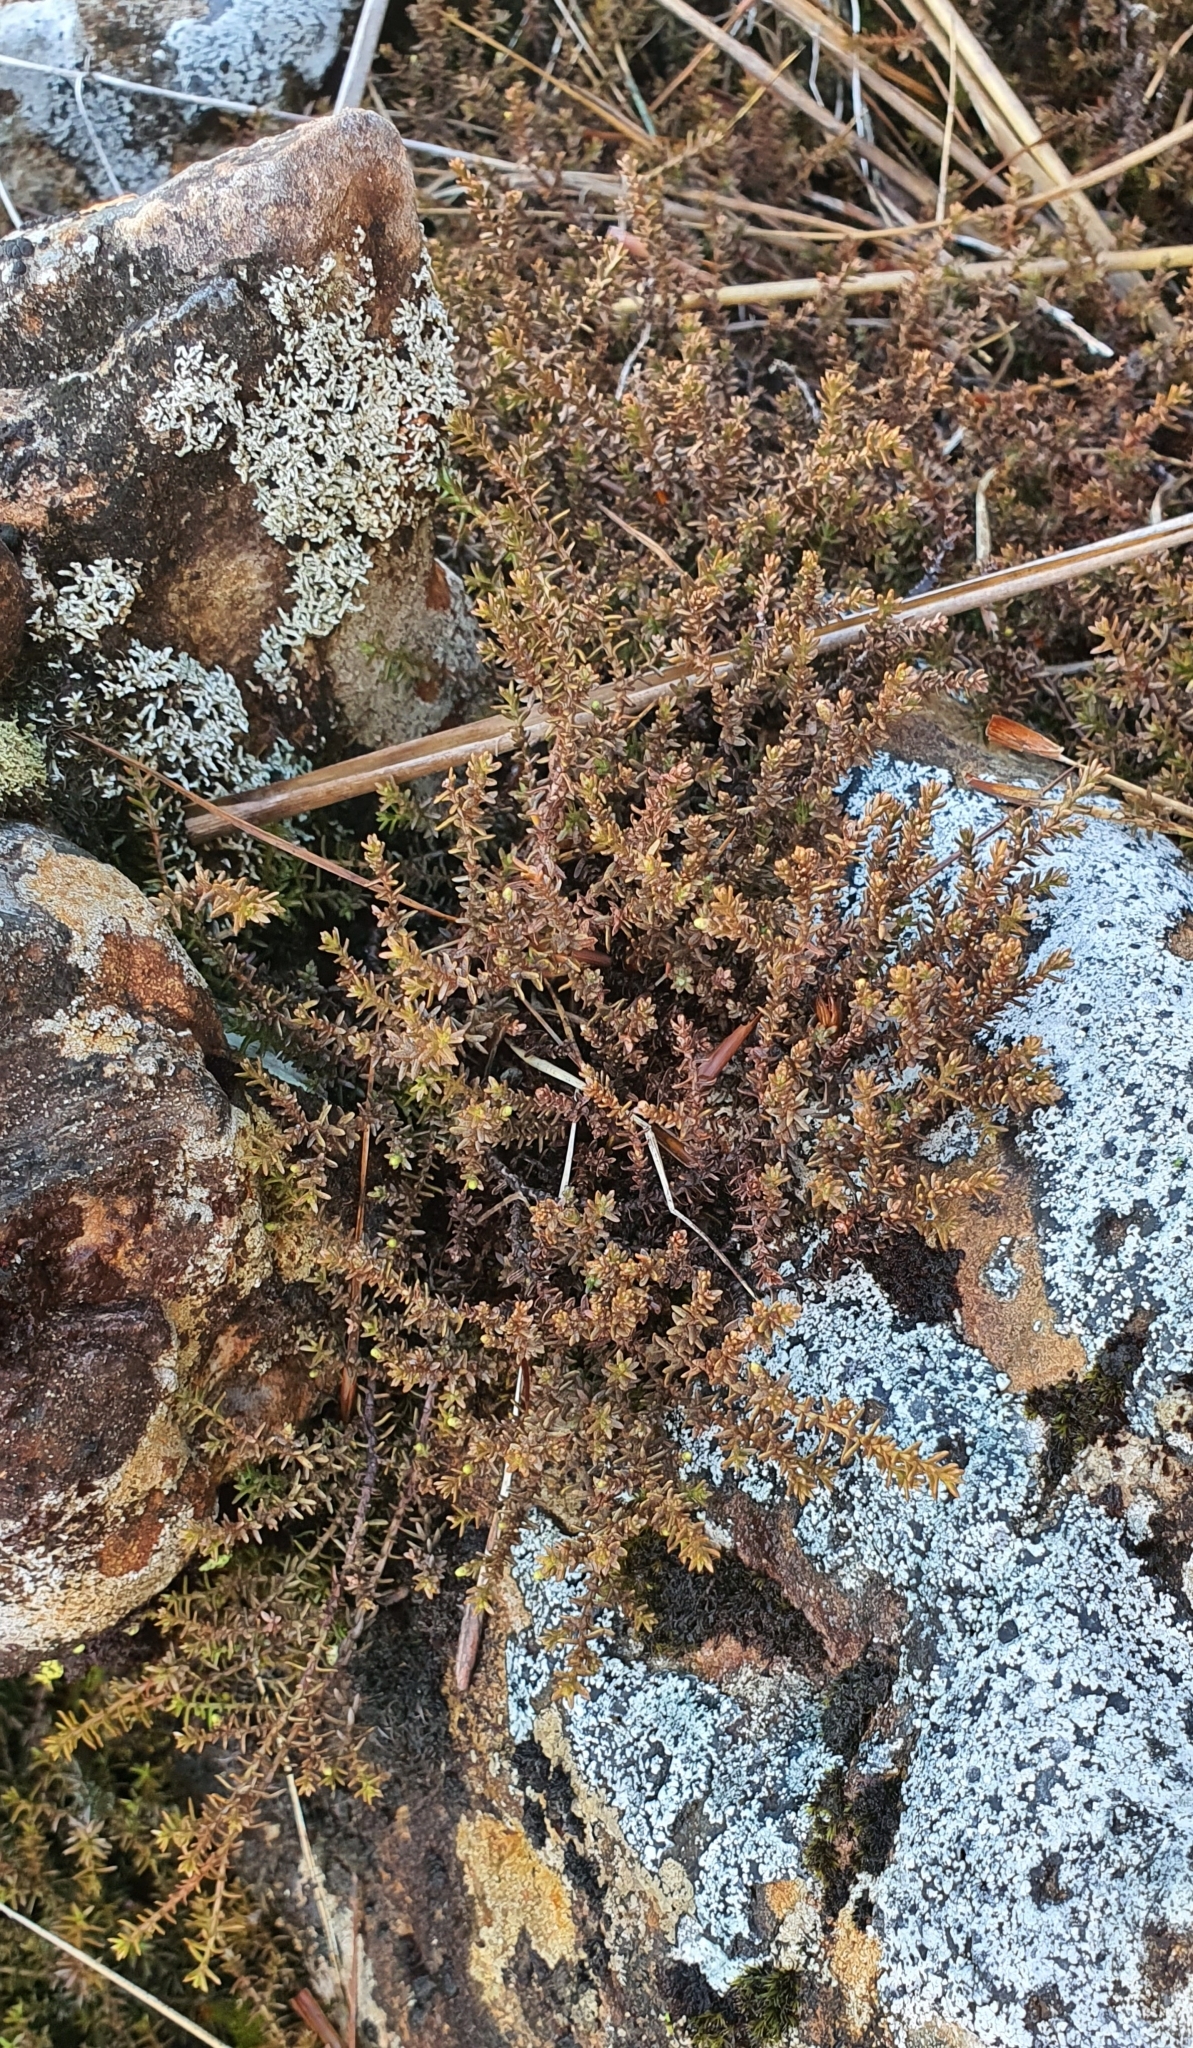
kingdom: Plantae
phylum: Tracheophyta
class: Pinopsida
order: Pinales
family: Podocarpaceae
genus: Lepidothamnus
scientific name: Lepidothamnus laxifolius
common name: Pygmy pine
